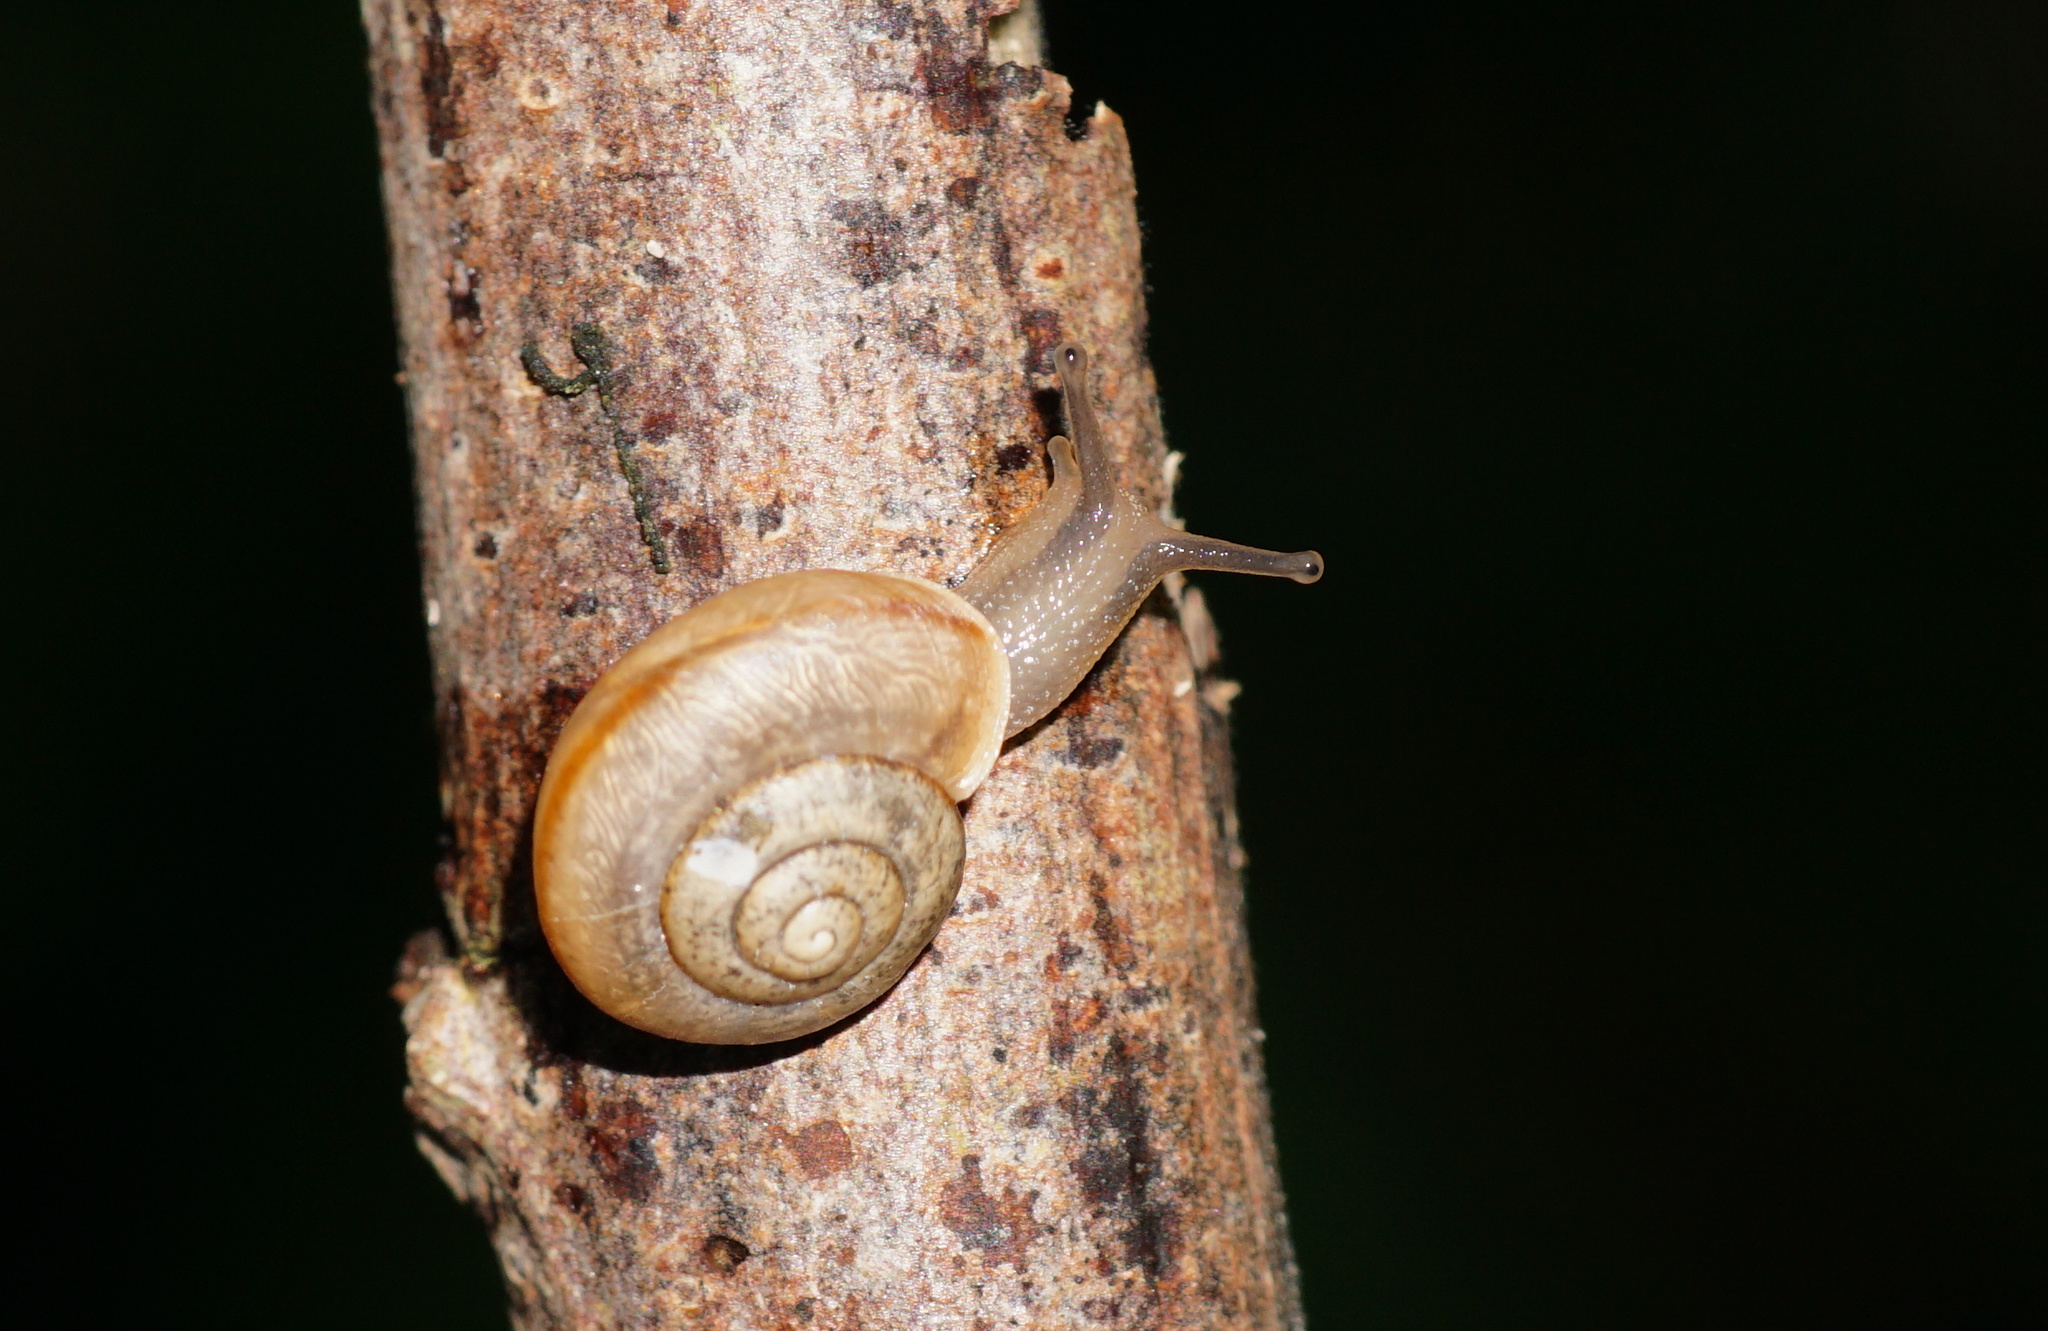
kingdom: Animalia
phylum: Mollusca
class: Gastropoda
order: Stylommatophora
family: Camaenidae
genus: Bradybaena
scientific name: Bradybaena similaris
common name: Asian trampsnail
